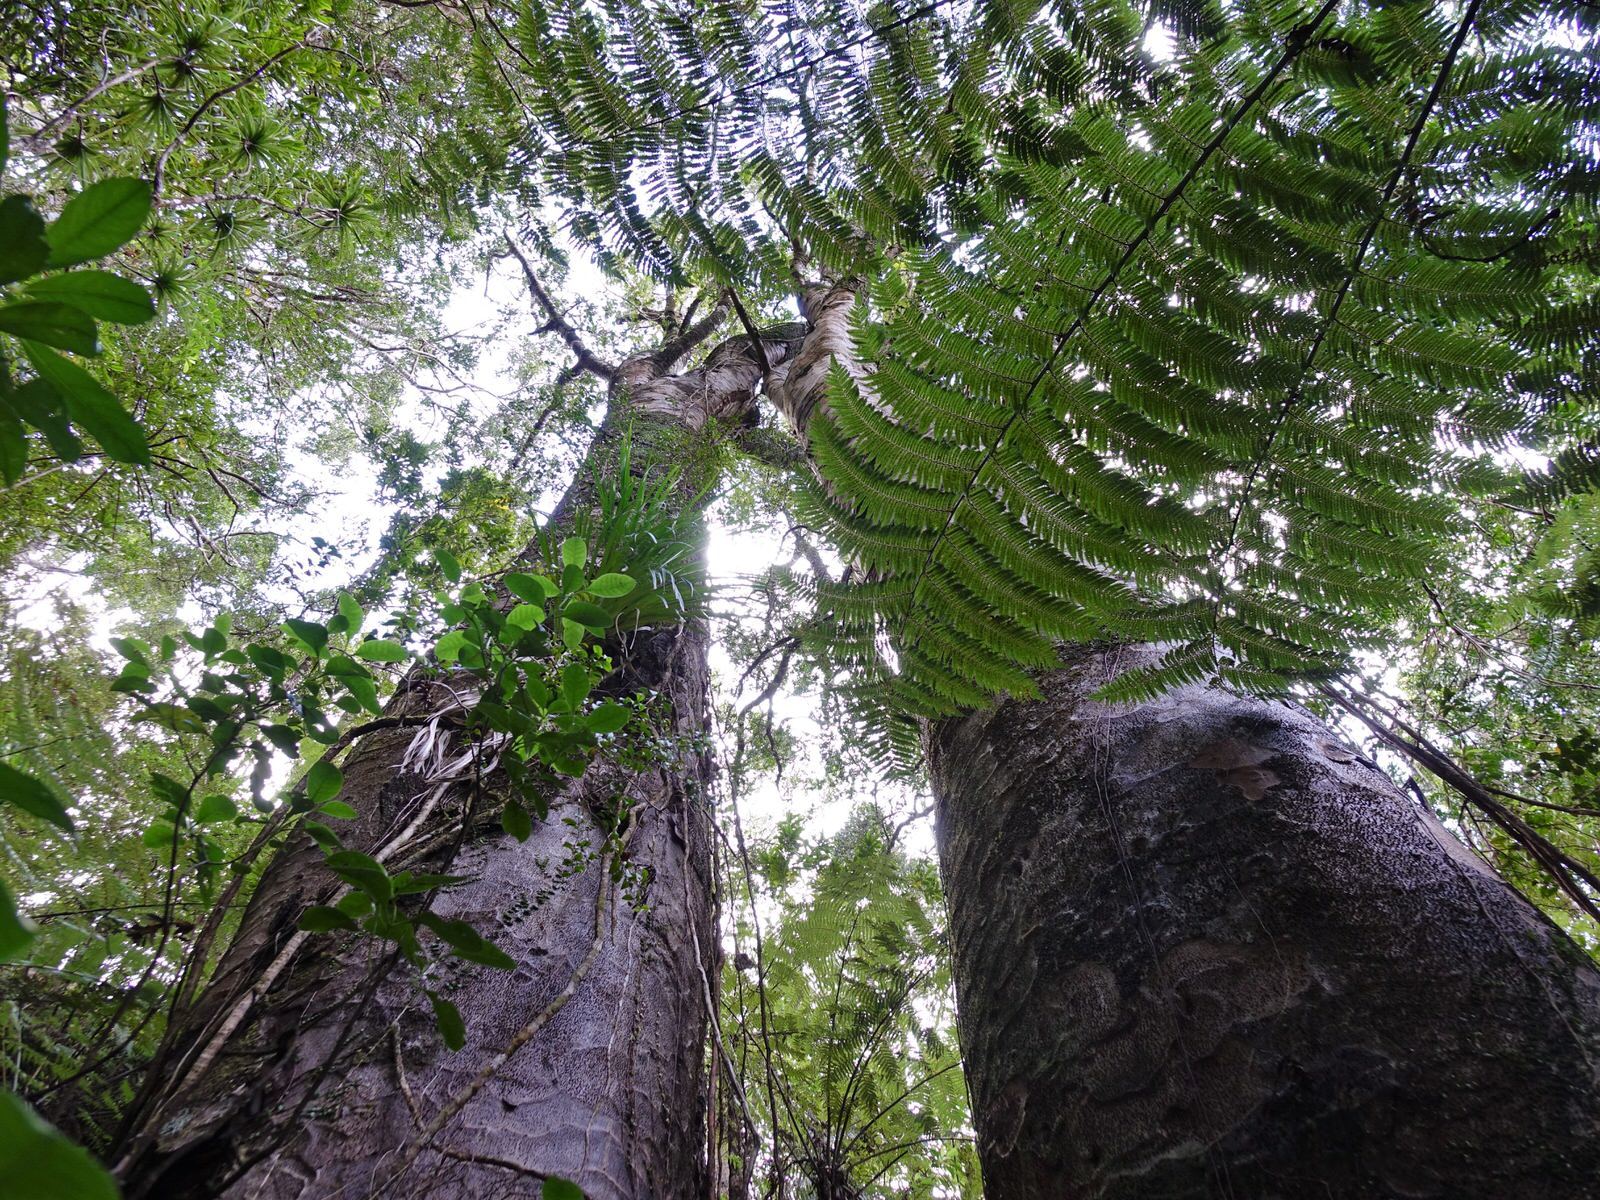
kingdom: Plantae
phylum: Tracheophyta
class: Pinopsida
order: Pinales
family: Araucariaceae
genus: Agathis
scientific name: Agathis australis
